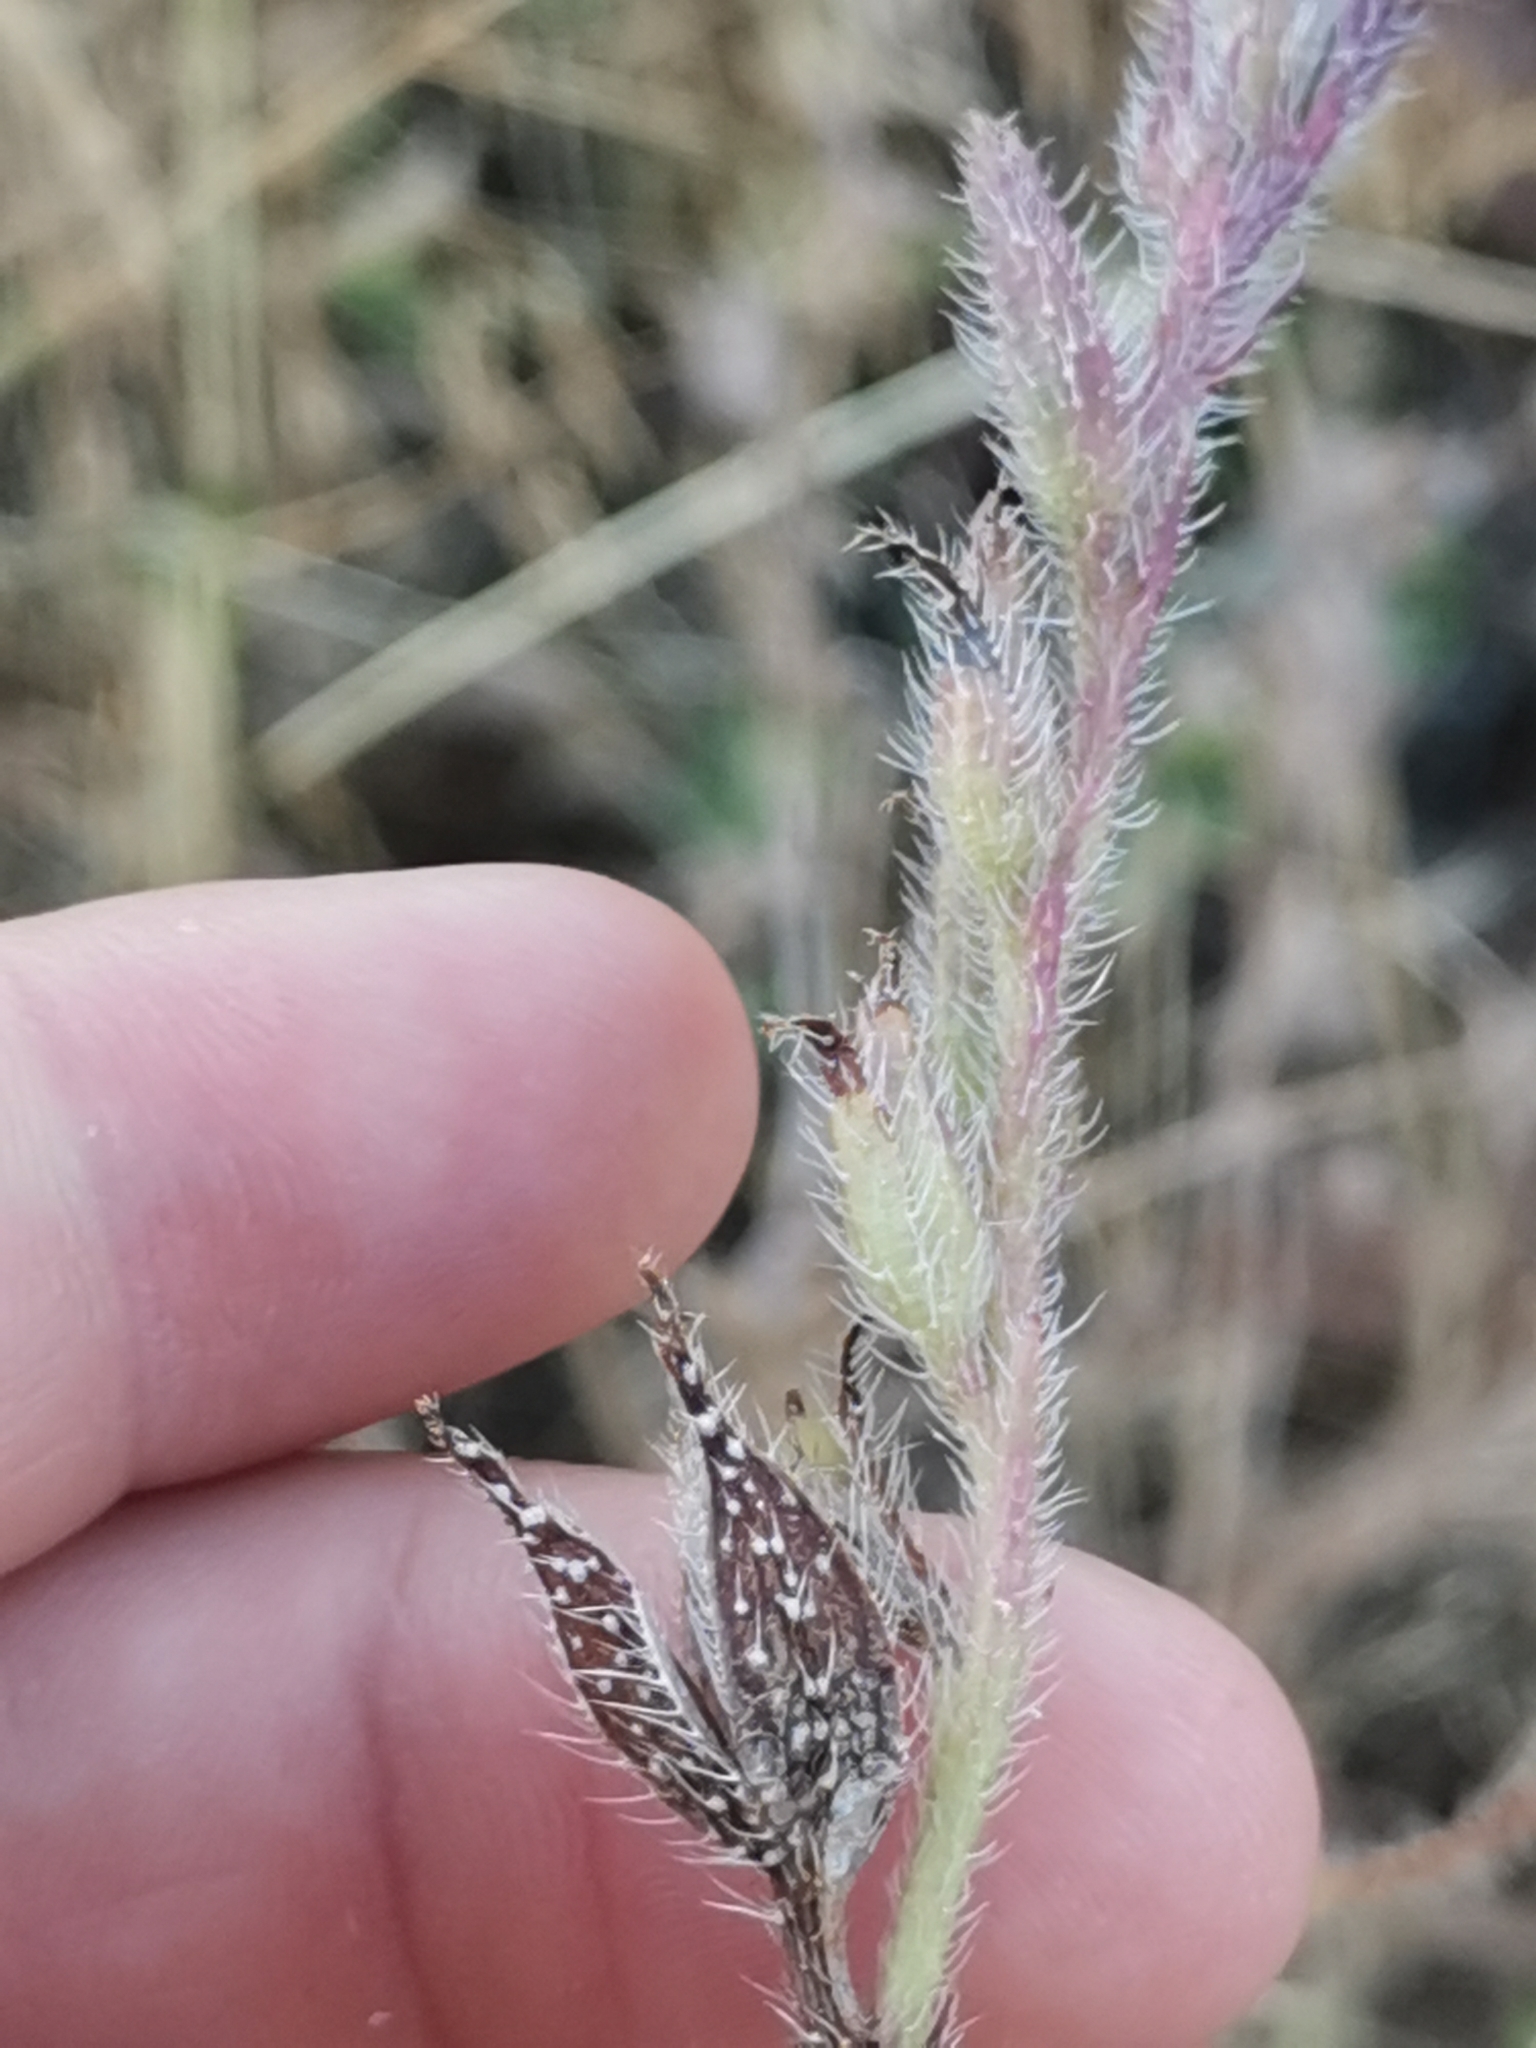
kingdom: Plantae
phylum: Tracheophyta
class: Magnoliopsida
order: Boraginales
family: Boraginaceae
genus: Anchusa
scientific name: Anchusa azurea
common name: Garden anchusa
